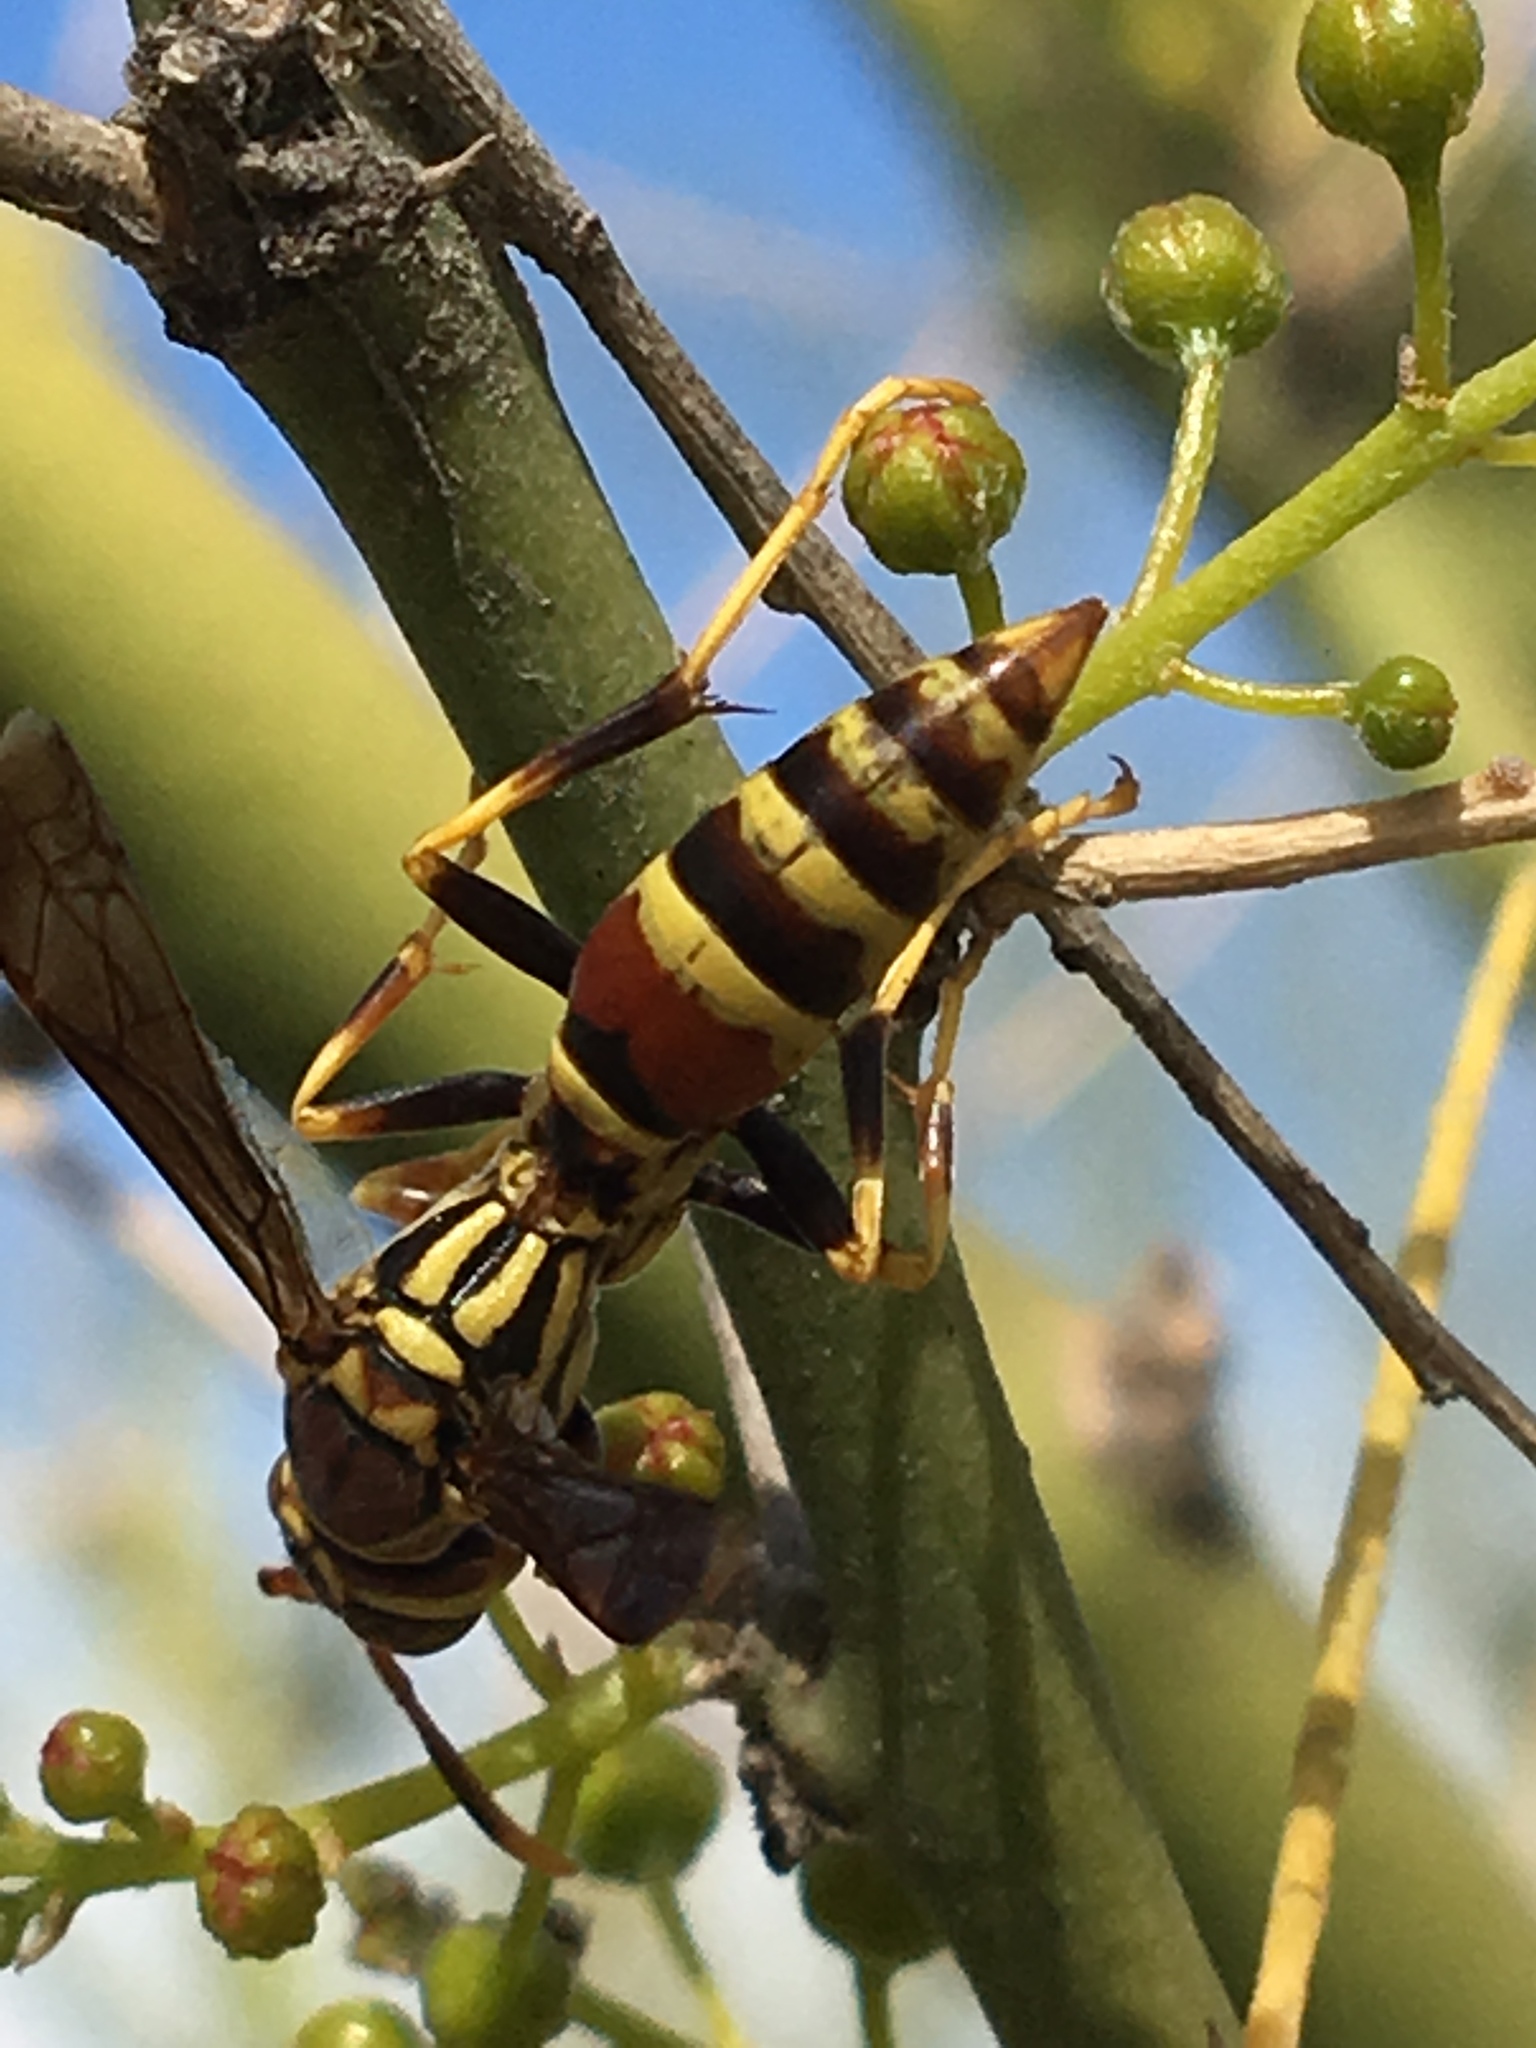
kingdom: Animalia
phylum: Arthropoda
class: Insecta
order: Hymenoptera
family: Eumenidae
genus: Polistes
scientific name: Polistes exclamans
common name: Paper wasp
